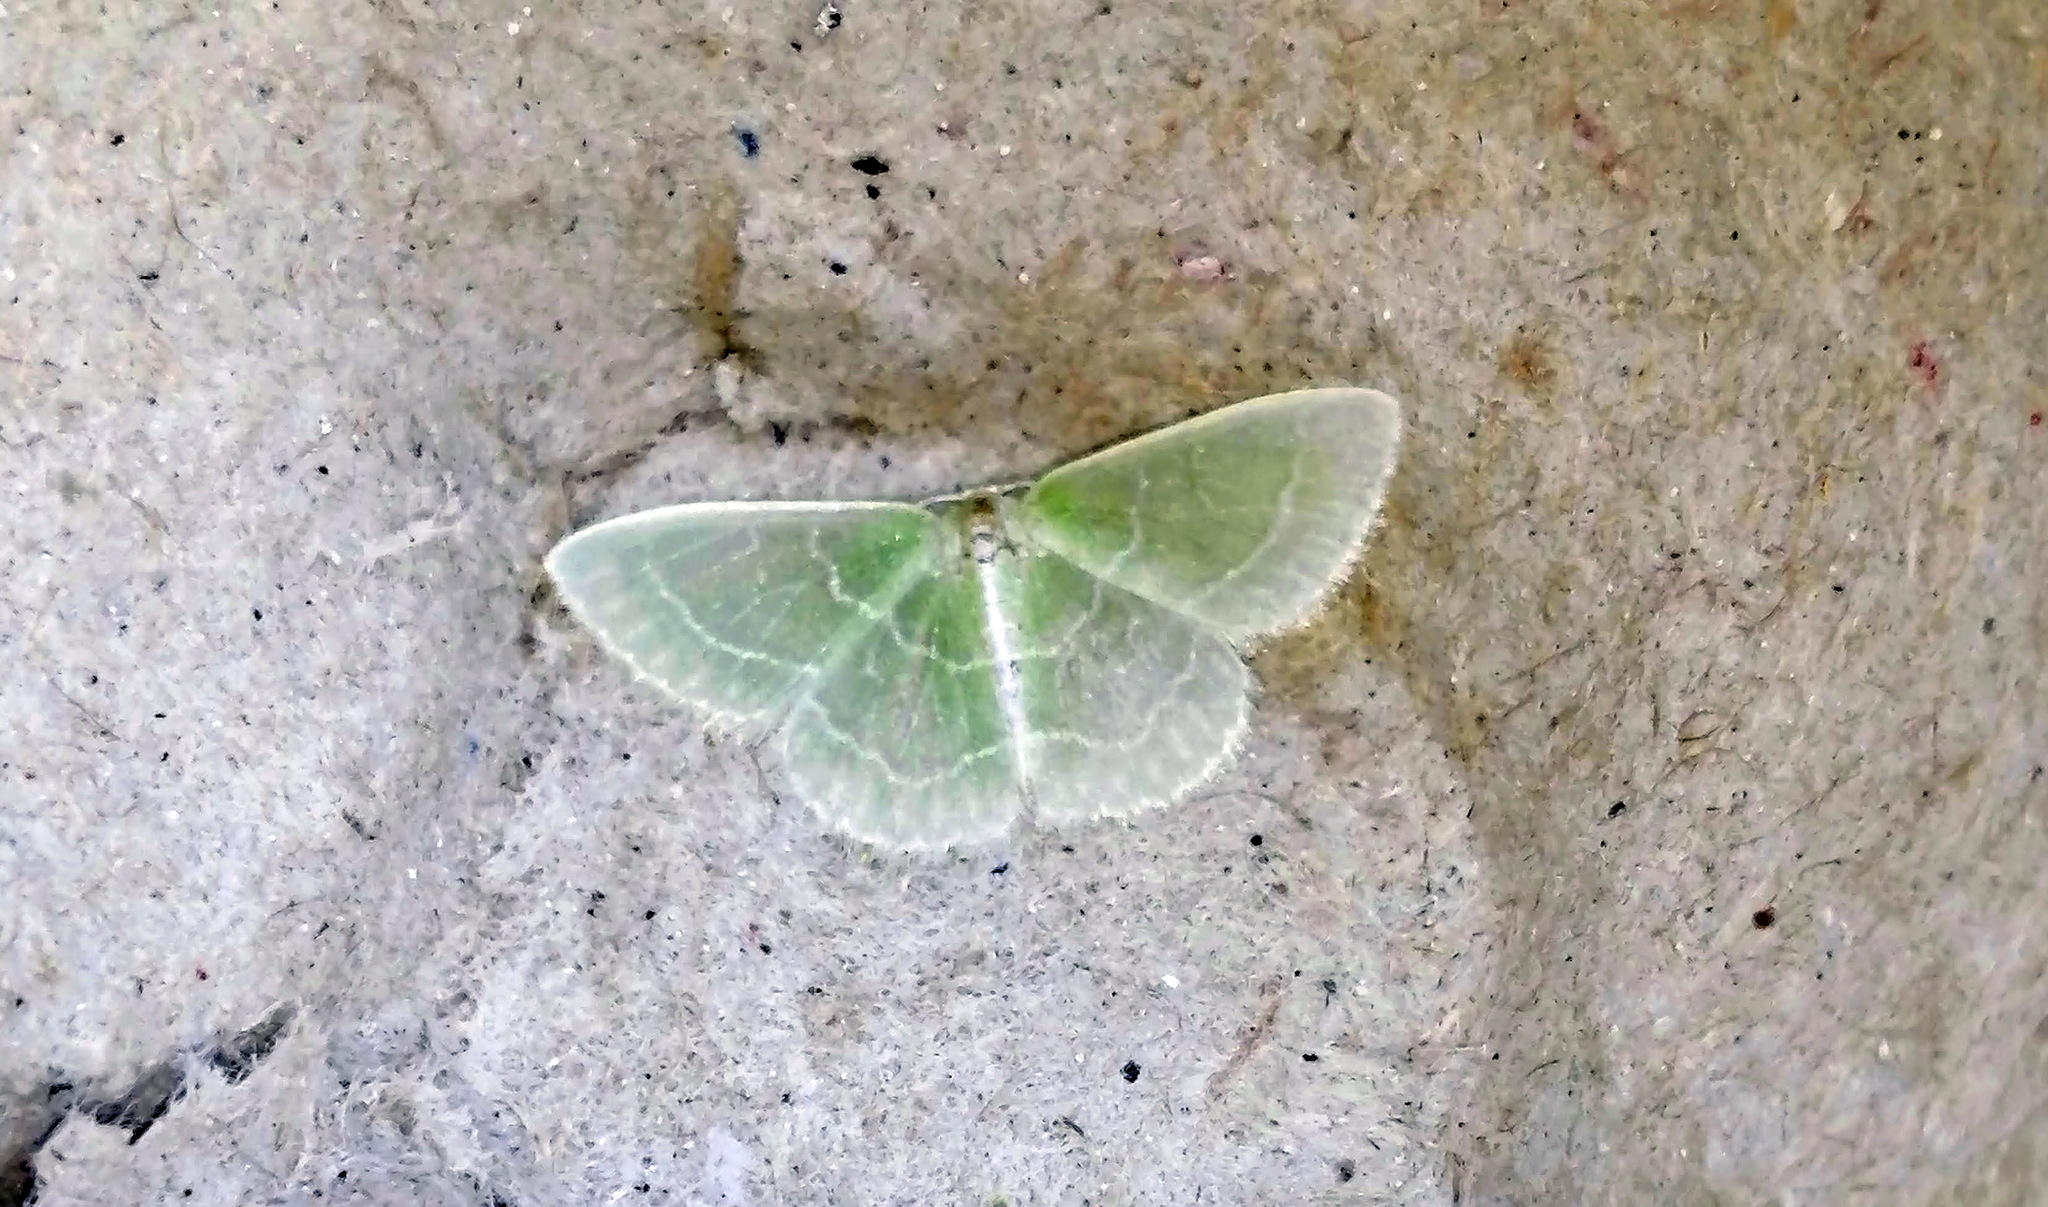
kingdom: Animalia
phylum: Arthropoda
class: Insecta
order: Lepidoptera
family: Geometridae
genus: Synchlora
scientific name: Synchlora aerata
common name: Wavy-lined emerald
